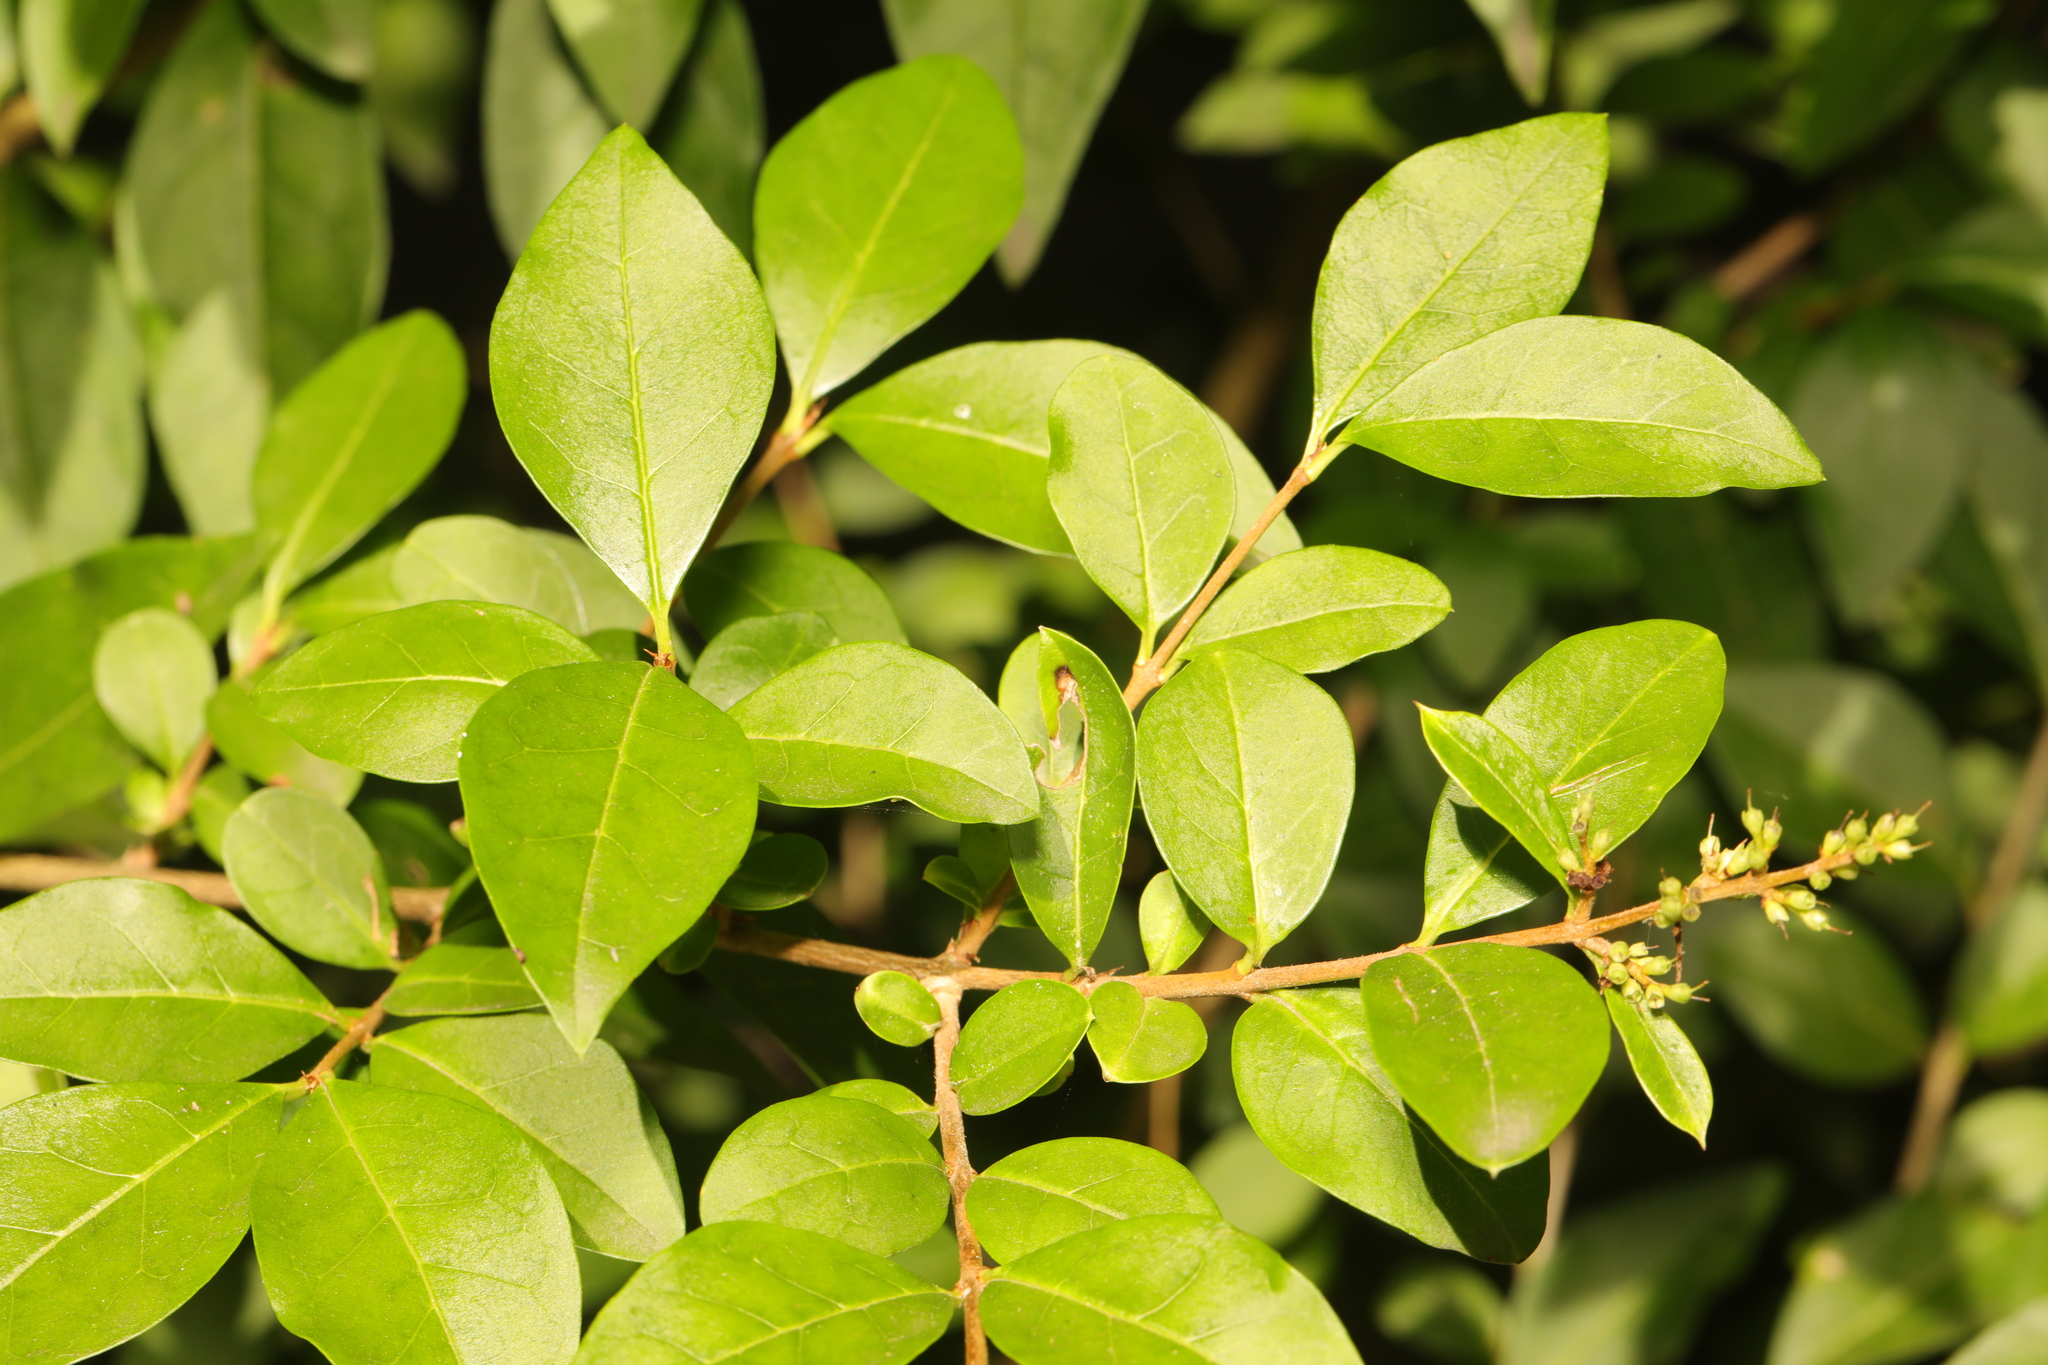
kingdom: Plantae
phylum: Tracheophyta
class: Magnoliopsida
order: Lamiales
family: Oleaceae
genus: Ligustrum
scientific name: Ligustrum ovalifolium
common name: California privet
